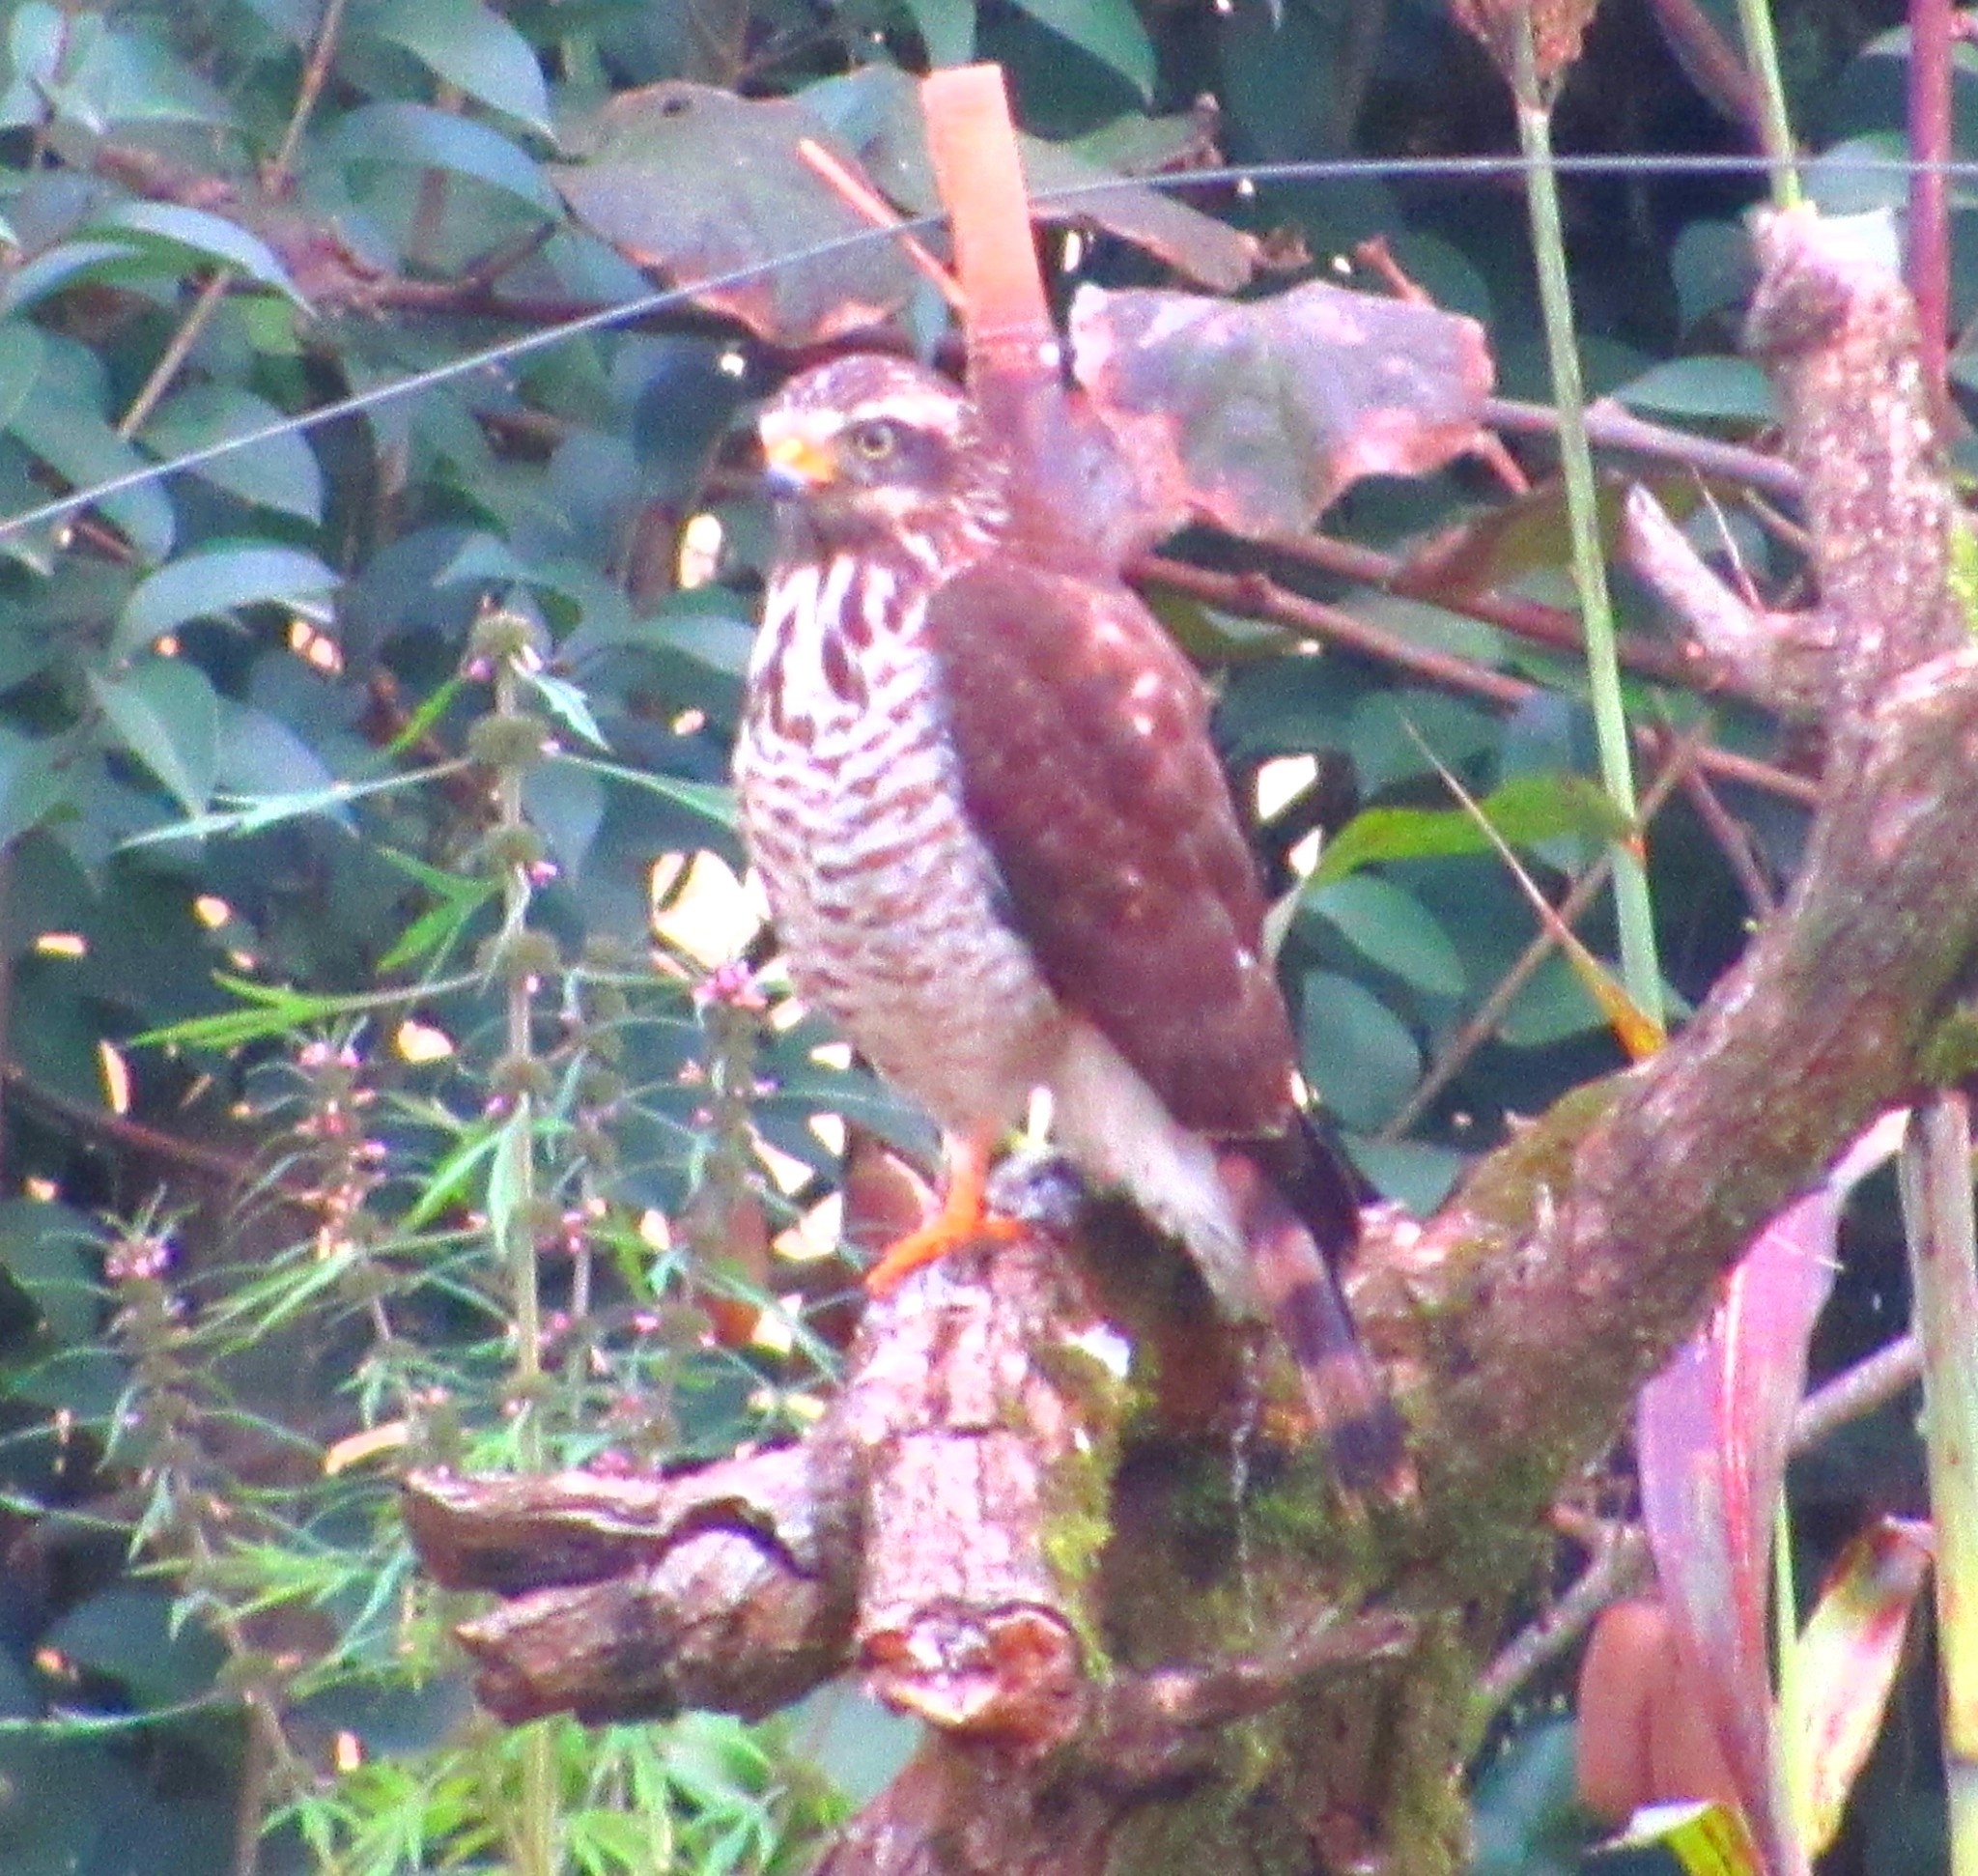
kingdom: Animalia
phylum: Chordata
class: Aves
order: Accipitriformes
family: Accipitridae
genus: Rupornis
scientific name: Rupornis magnirostris
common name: Roadside hawk
